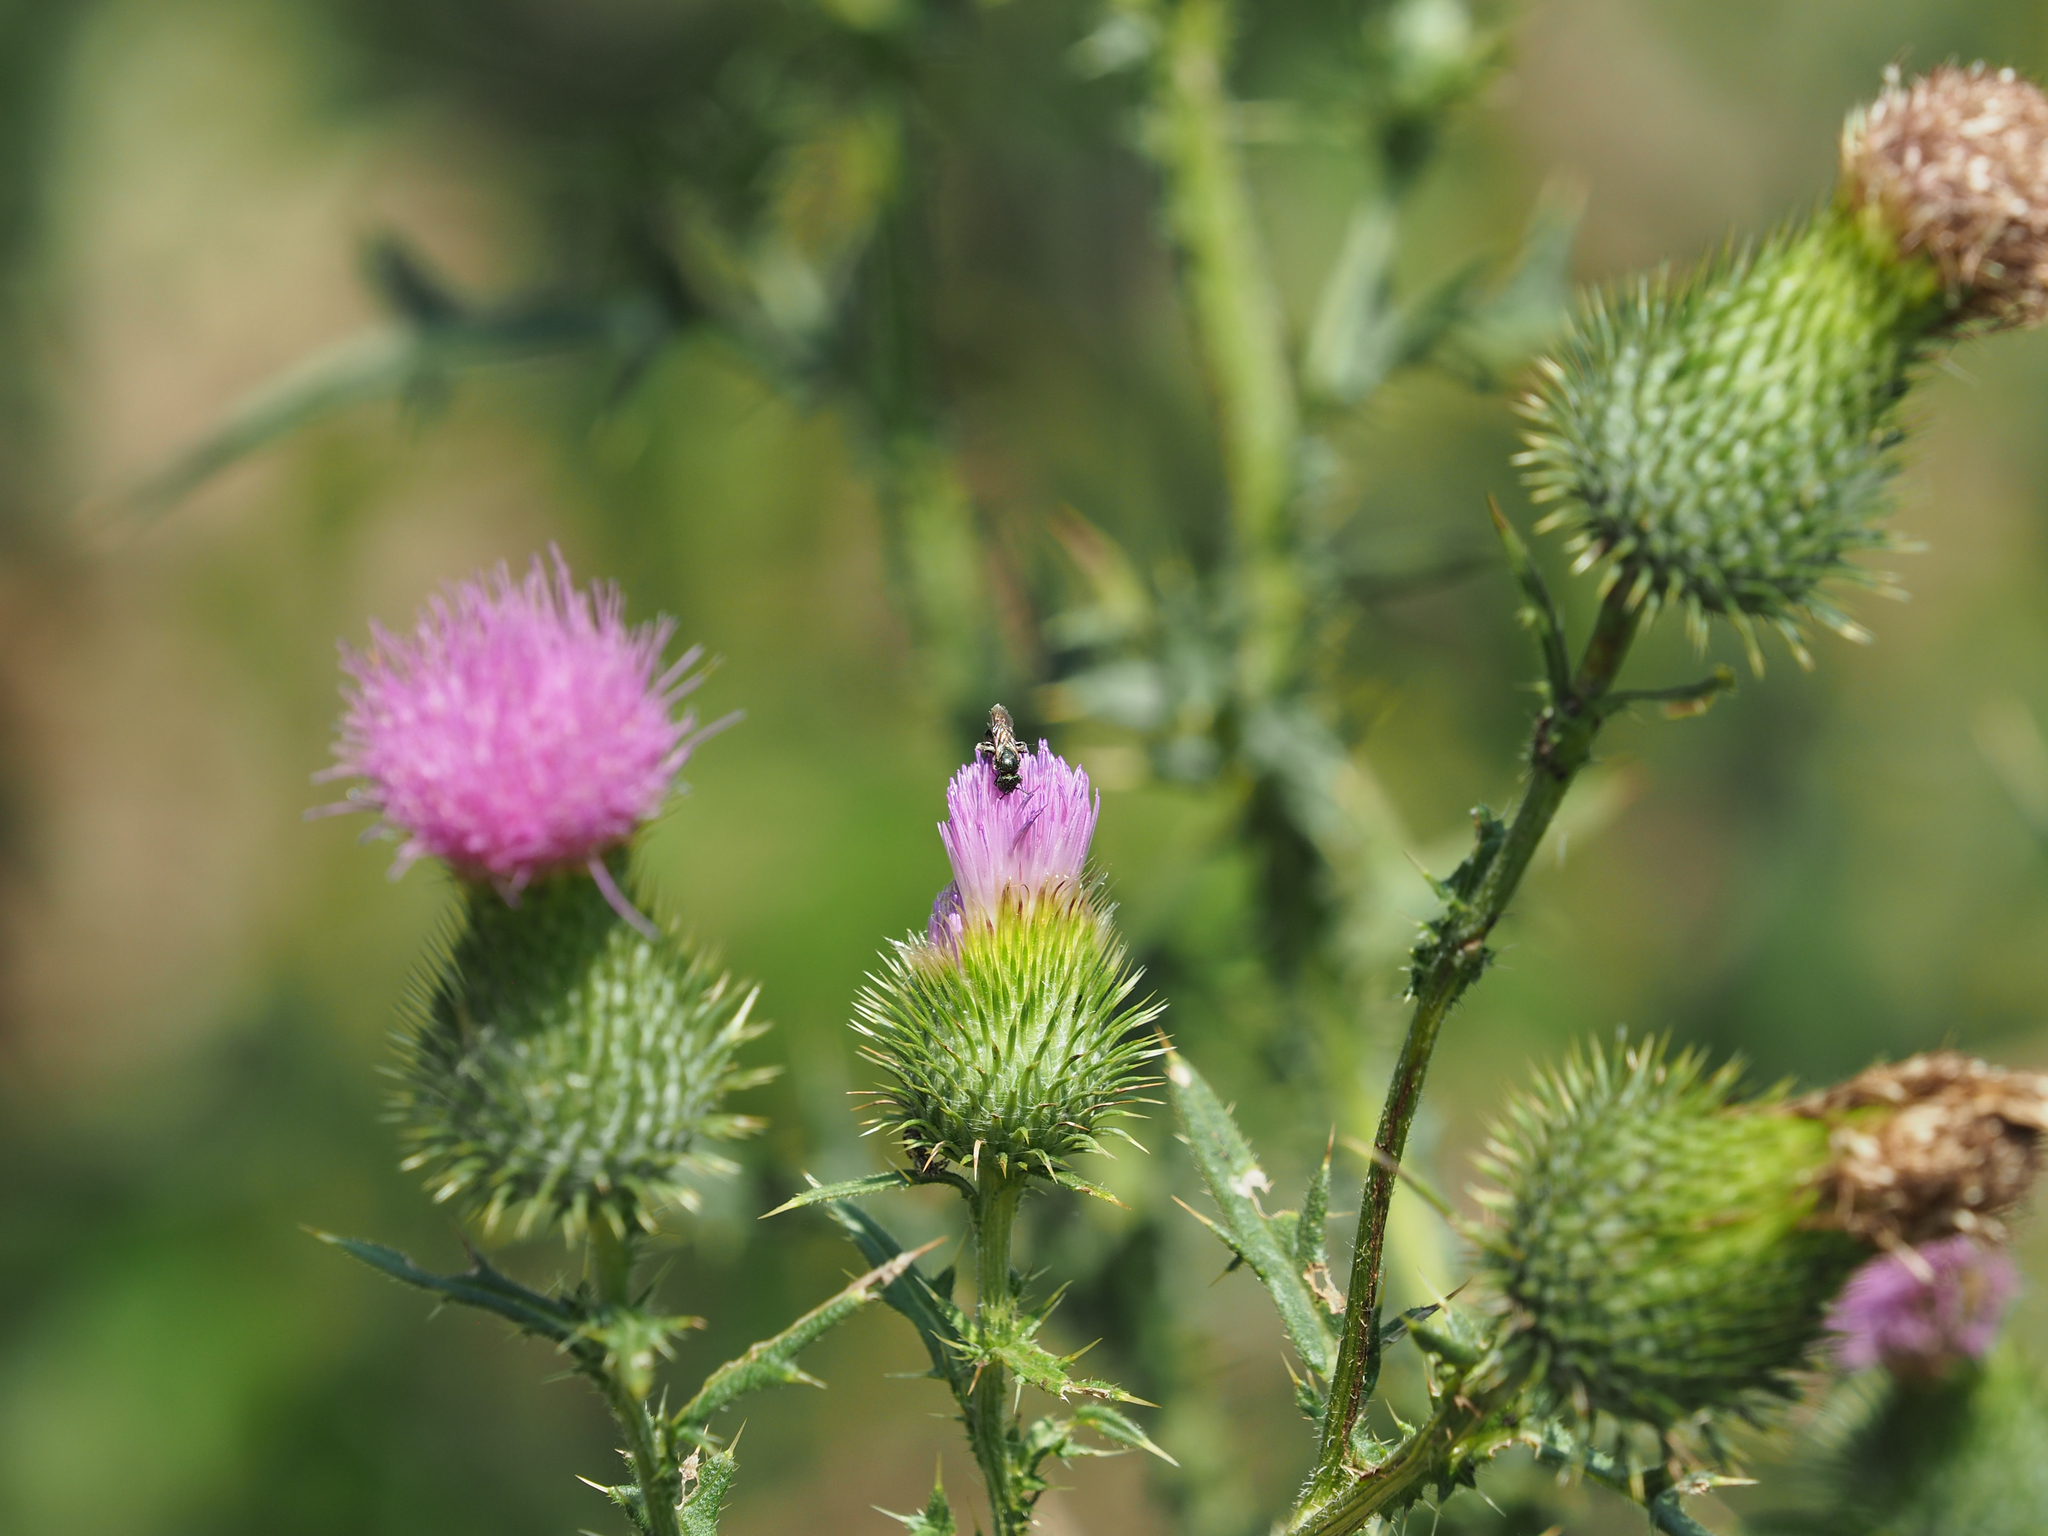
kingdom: Plantae
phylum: Tracheophyta
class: Magnoliopsida
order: Asterales
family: Asteraceae
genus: Cirsium
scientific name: Cirsium vulgare
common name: Bull thistle
